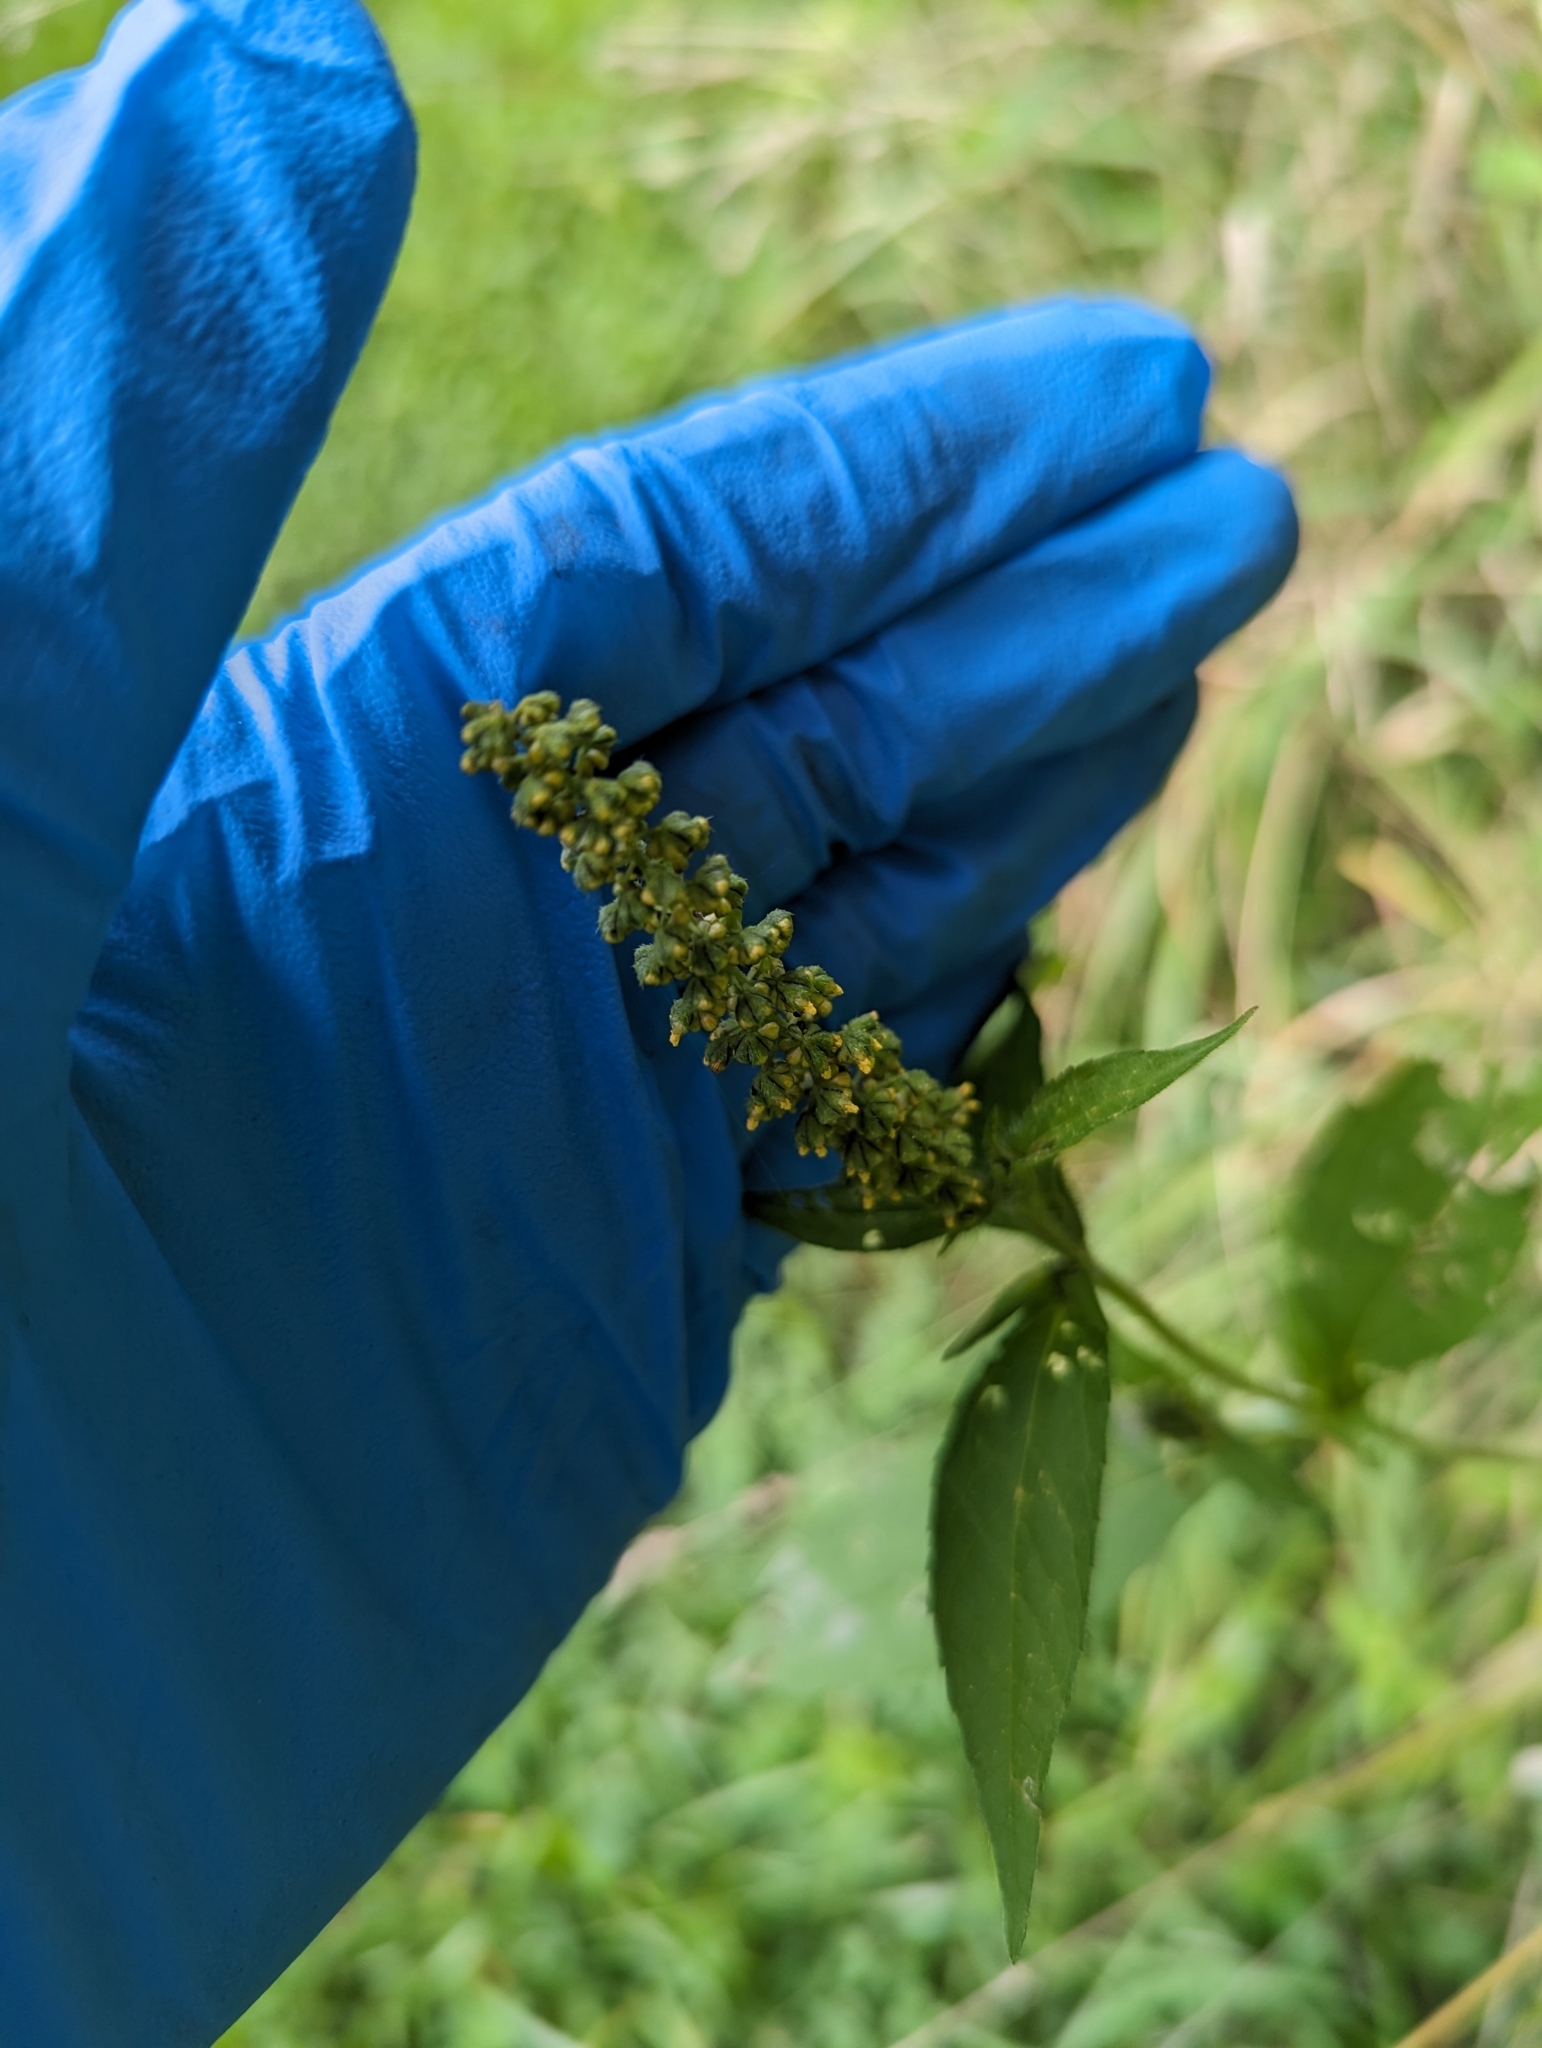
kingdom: Plantae
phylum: Tracheophyta
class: Magnoliopsida
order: Asterales
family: Asteraceae
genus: Ambrosia
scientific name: Ambrosia trifida
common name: Giant ragweed
